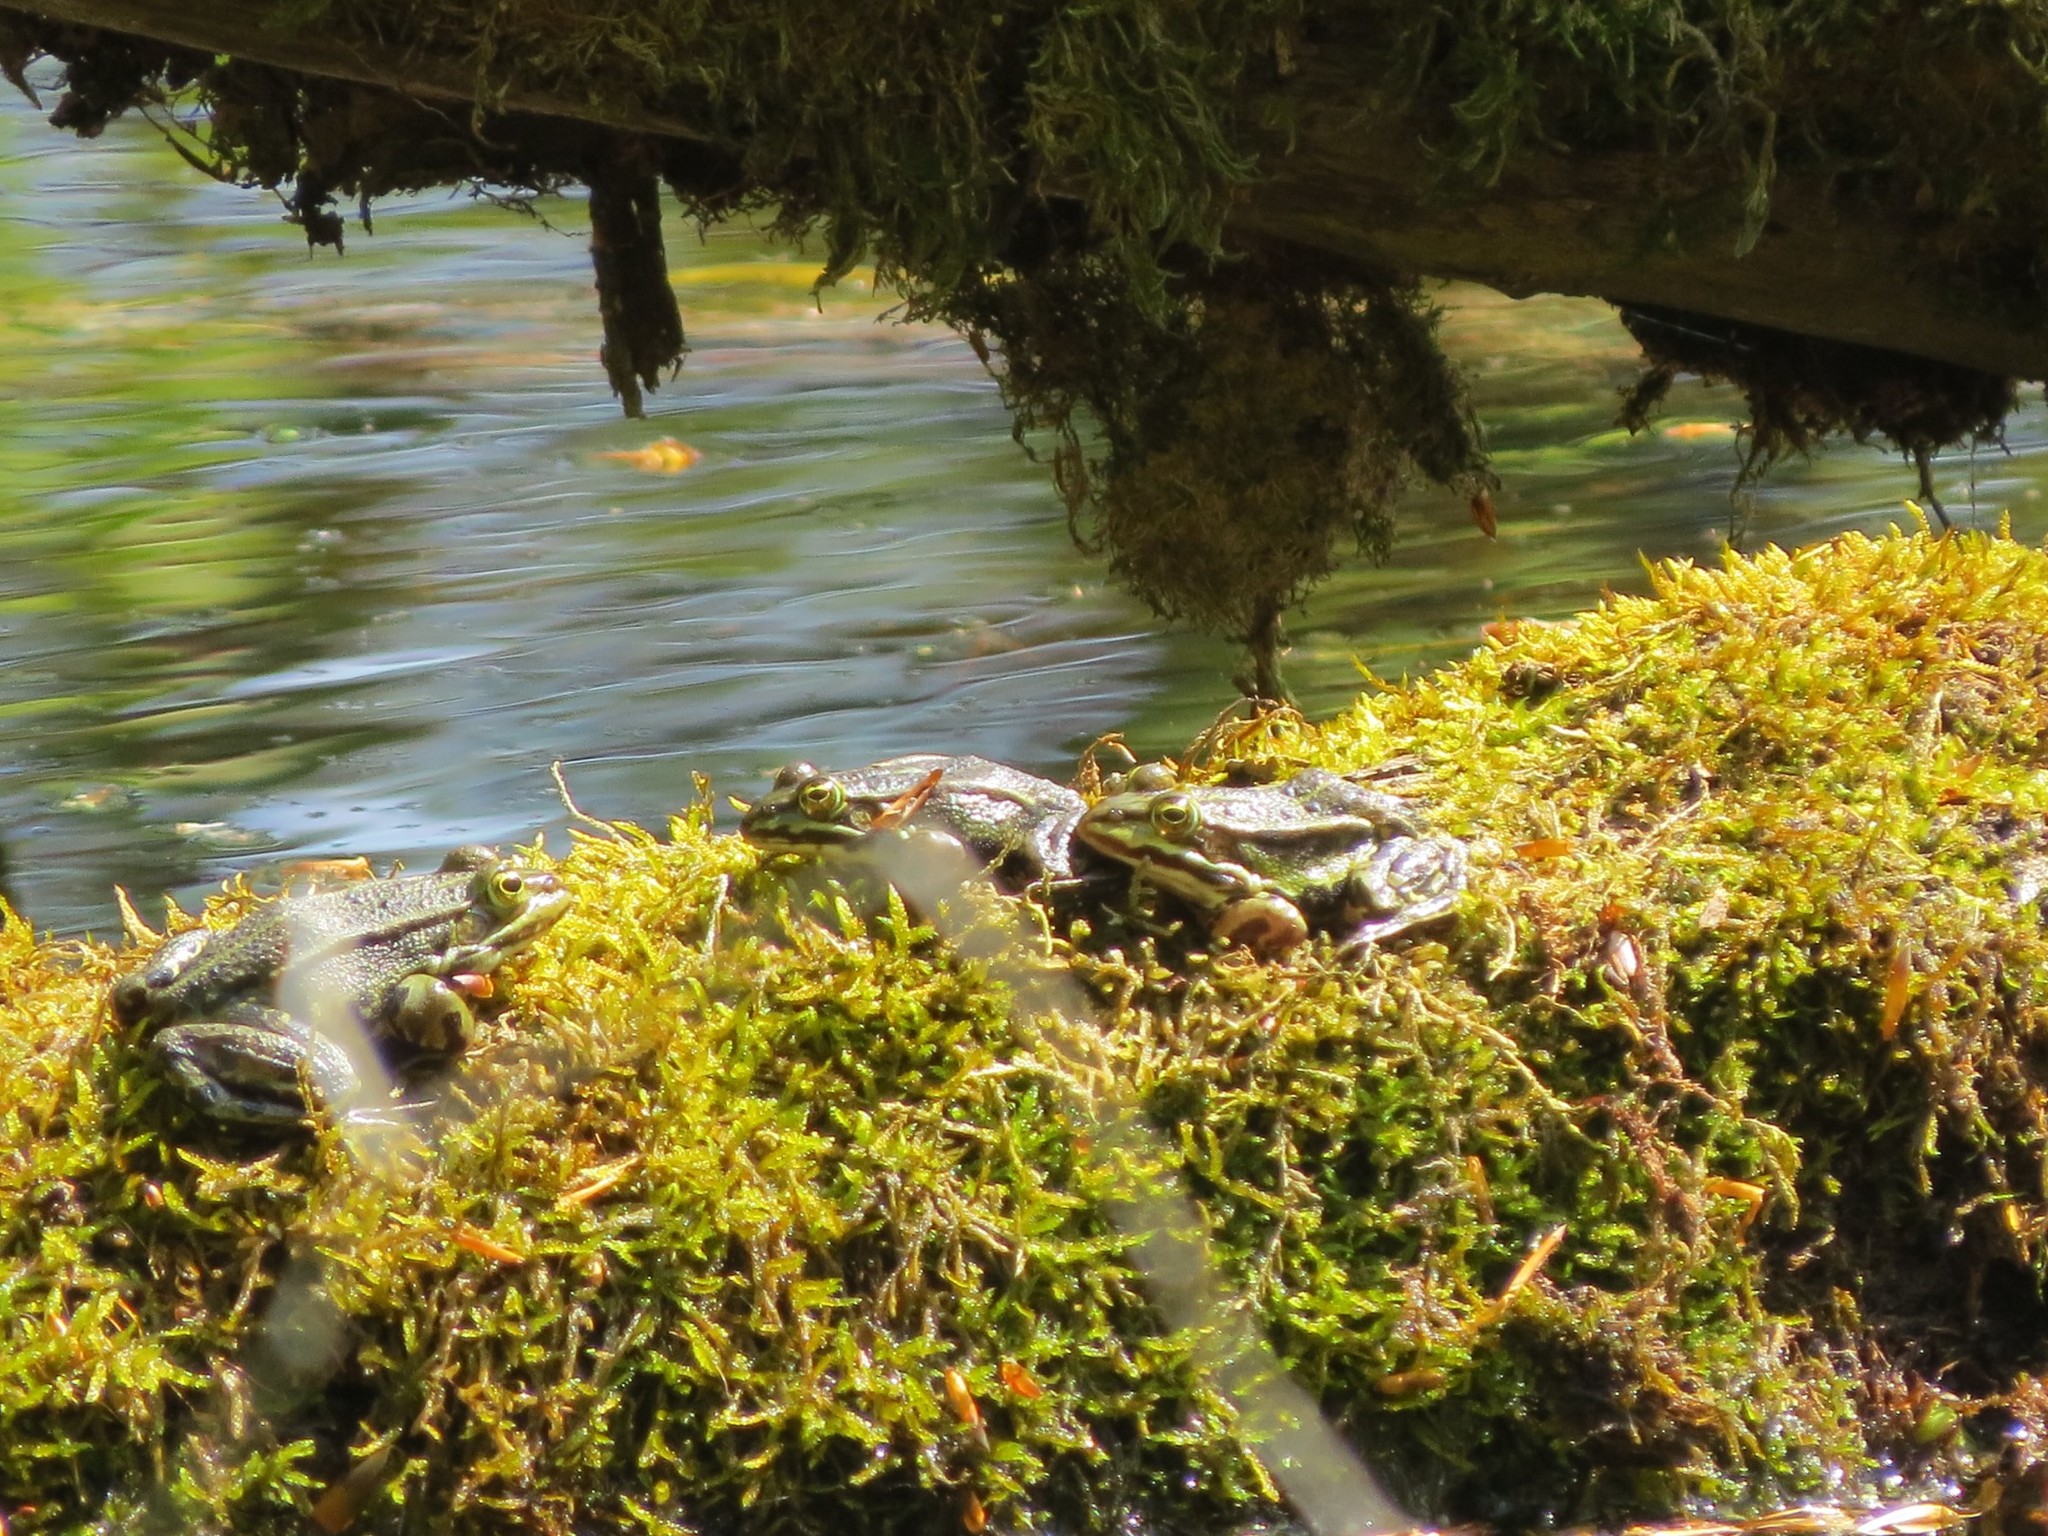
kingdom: Animalia
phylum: Chordata
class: Amphibia
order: Anura
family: Ranidae
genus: Pelophylax
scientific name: Pelophylax
